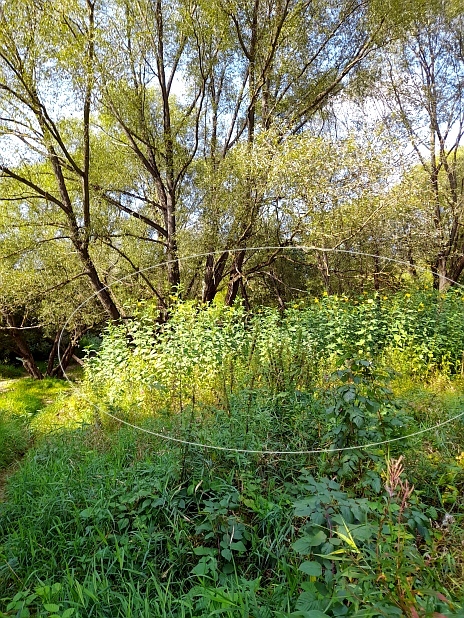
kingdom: Plantae
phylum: Tracheophyta
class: Magnoliopsida
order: Asterales
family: Asteraceae
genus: Helianthus
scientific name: Helianthus tuberosus
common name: Jerusalem artichoke
